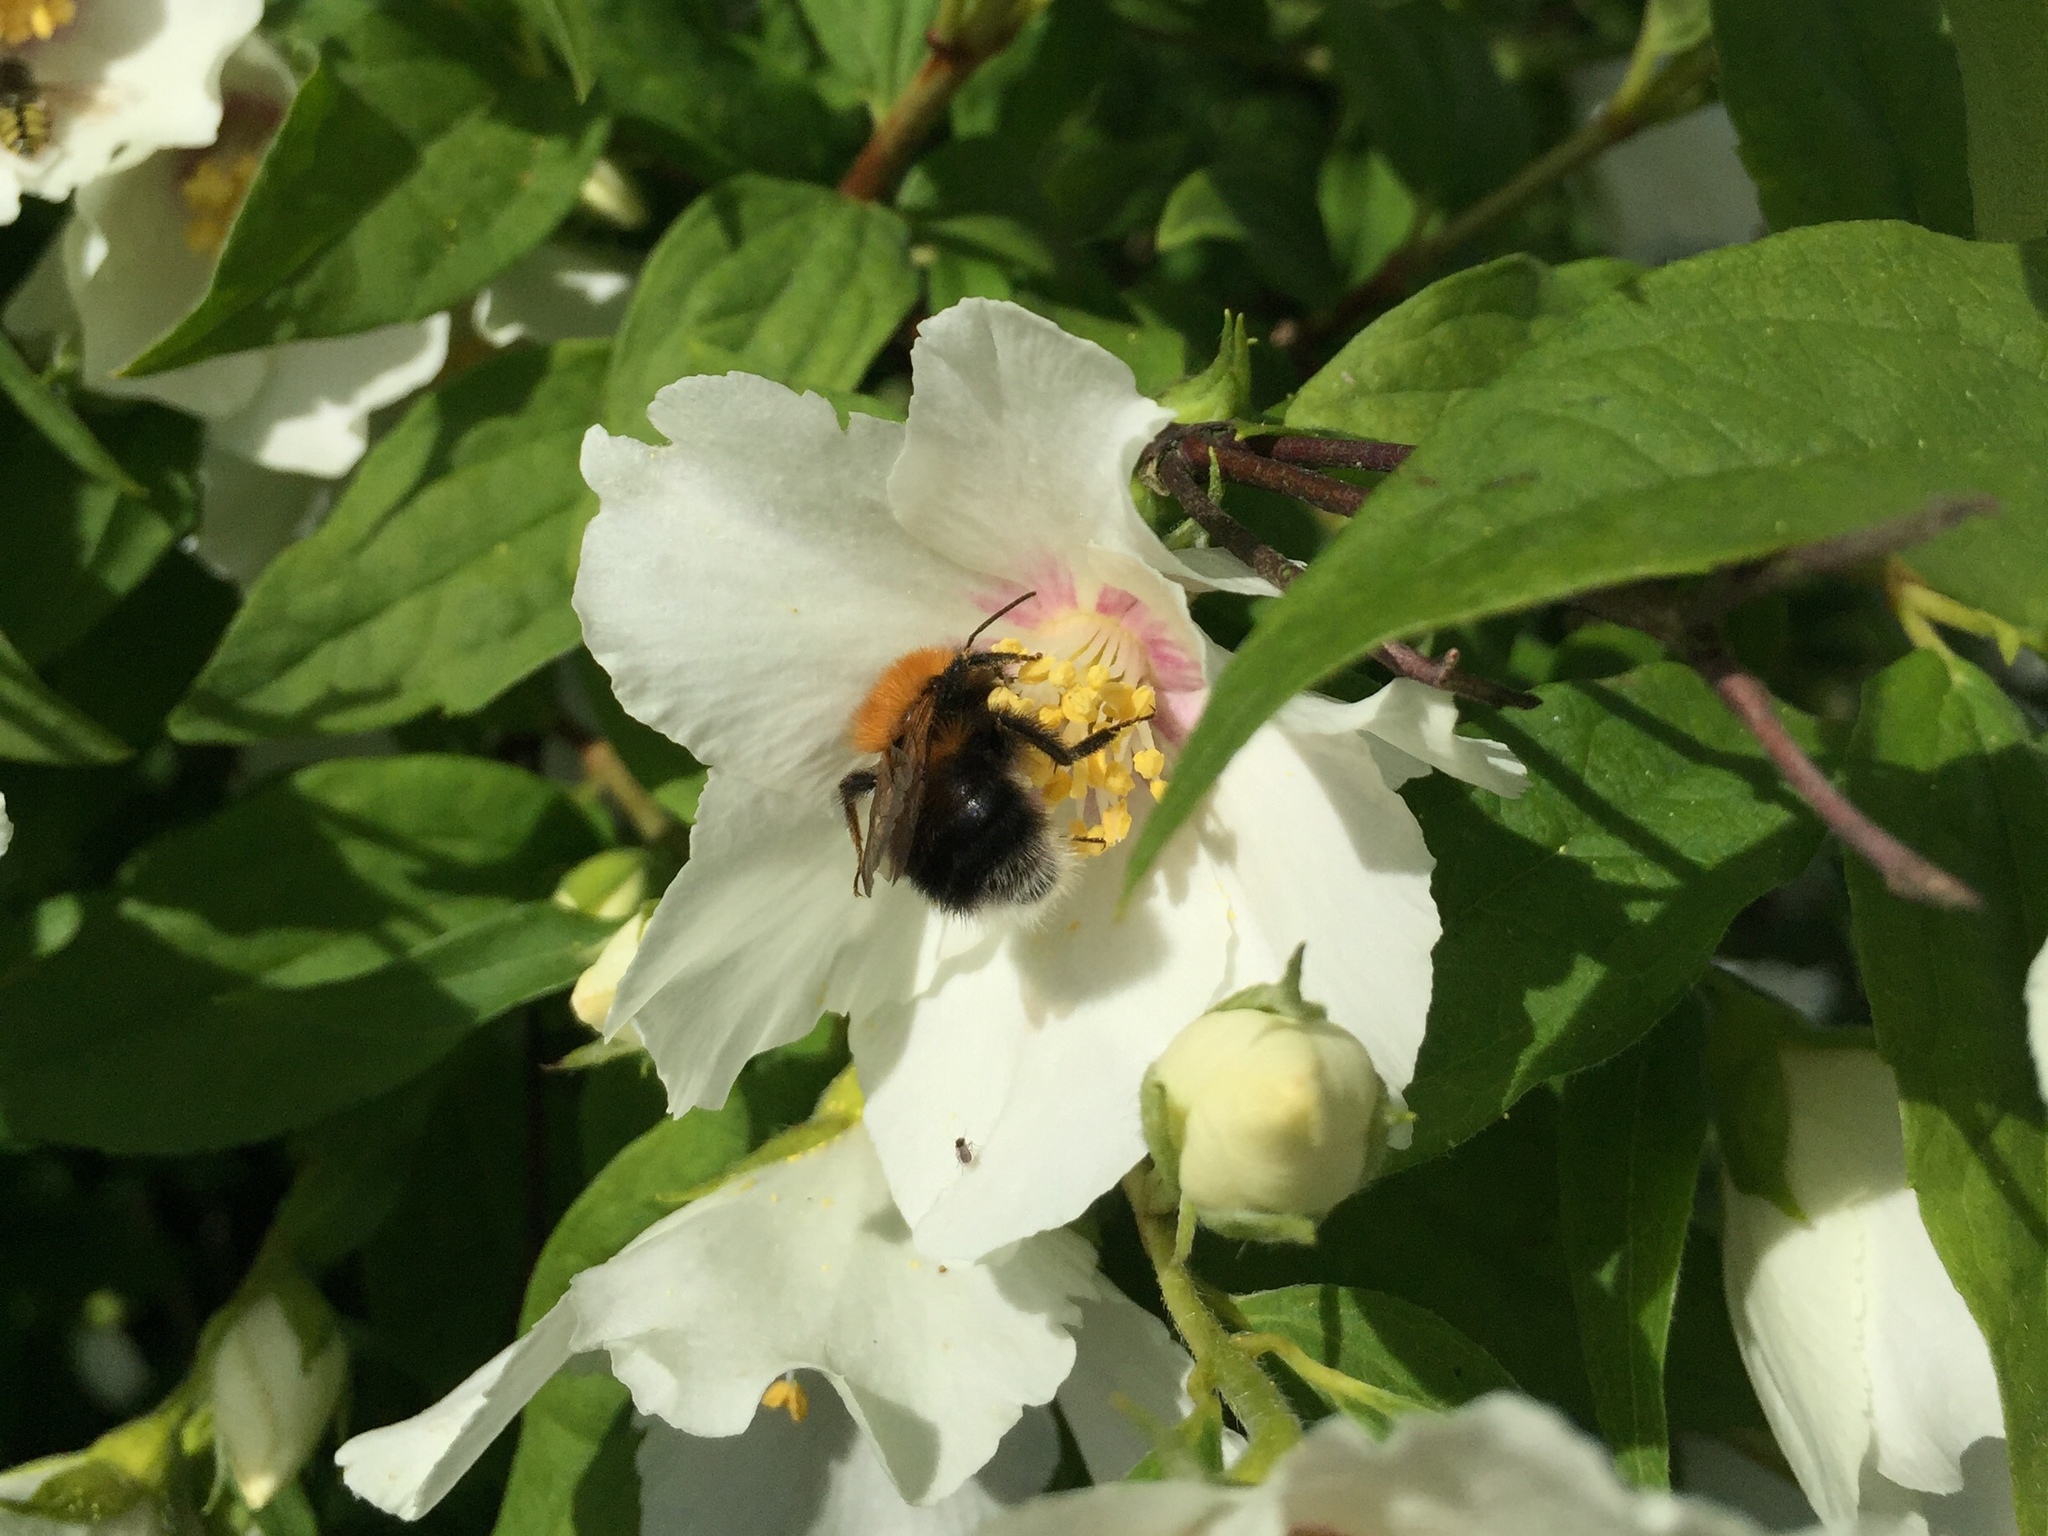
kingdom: Animalia
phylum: Arthropoda
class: Insecta
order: Hymenoptera
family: Apidae
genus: Bombus
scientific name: Bombus hypnorum
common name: New garden bumblebee
